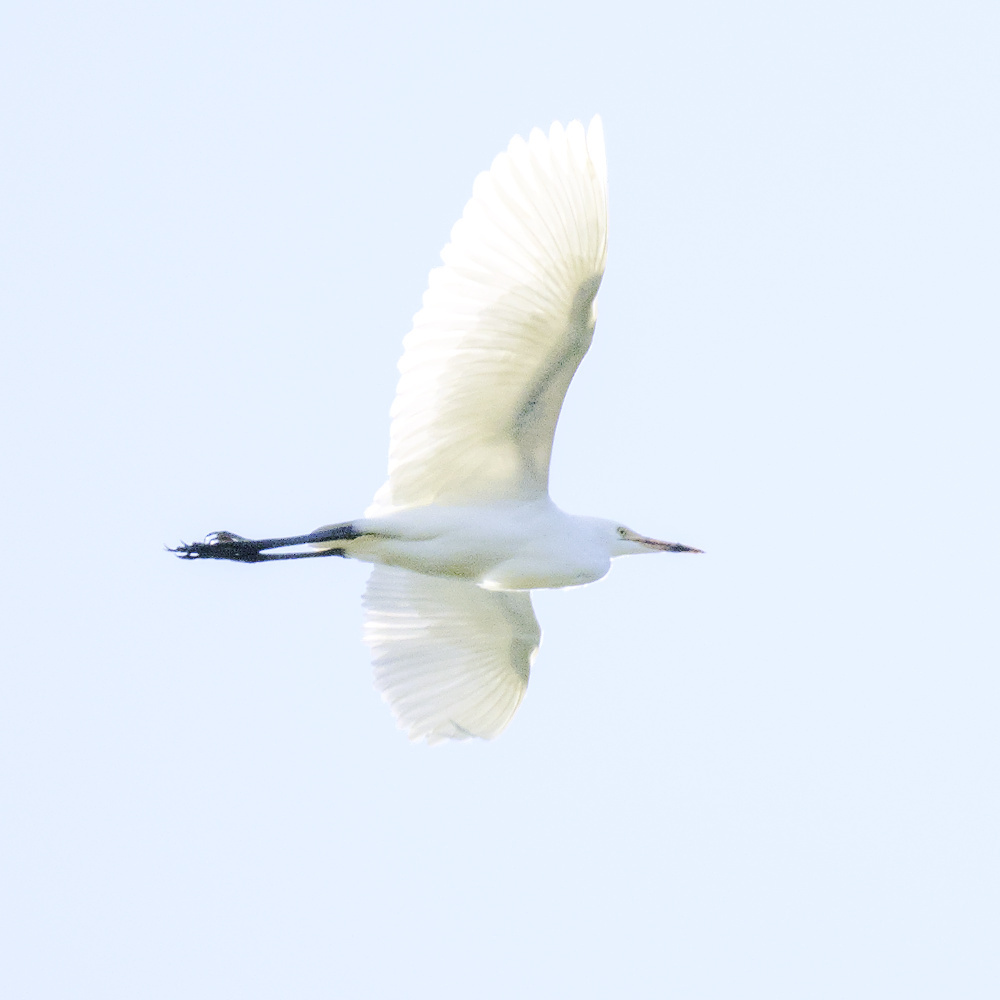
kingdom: Animalia
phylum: Chordata
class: Aves
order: Pelecaniformes
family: Ardeidae
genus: Bubulcus
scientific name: Bubulcus coromandus
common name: Eastern cattle egret
